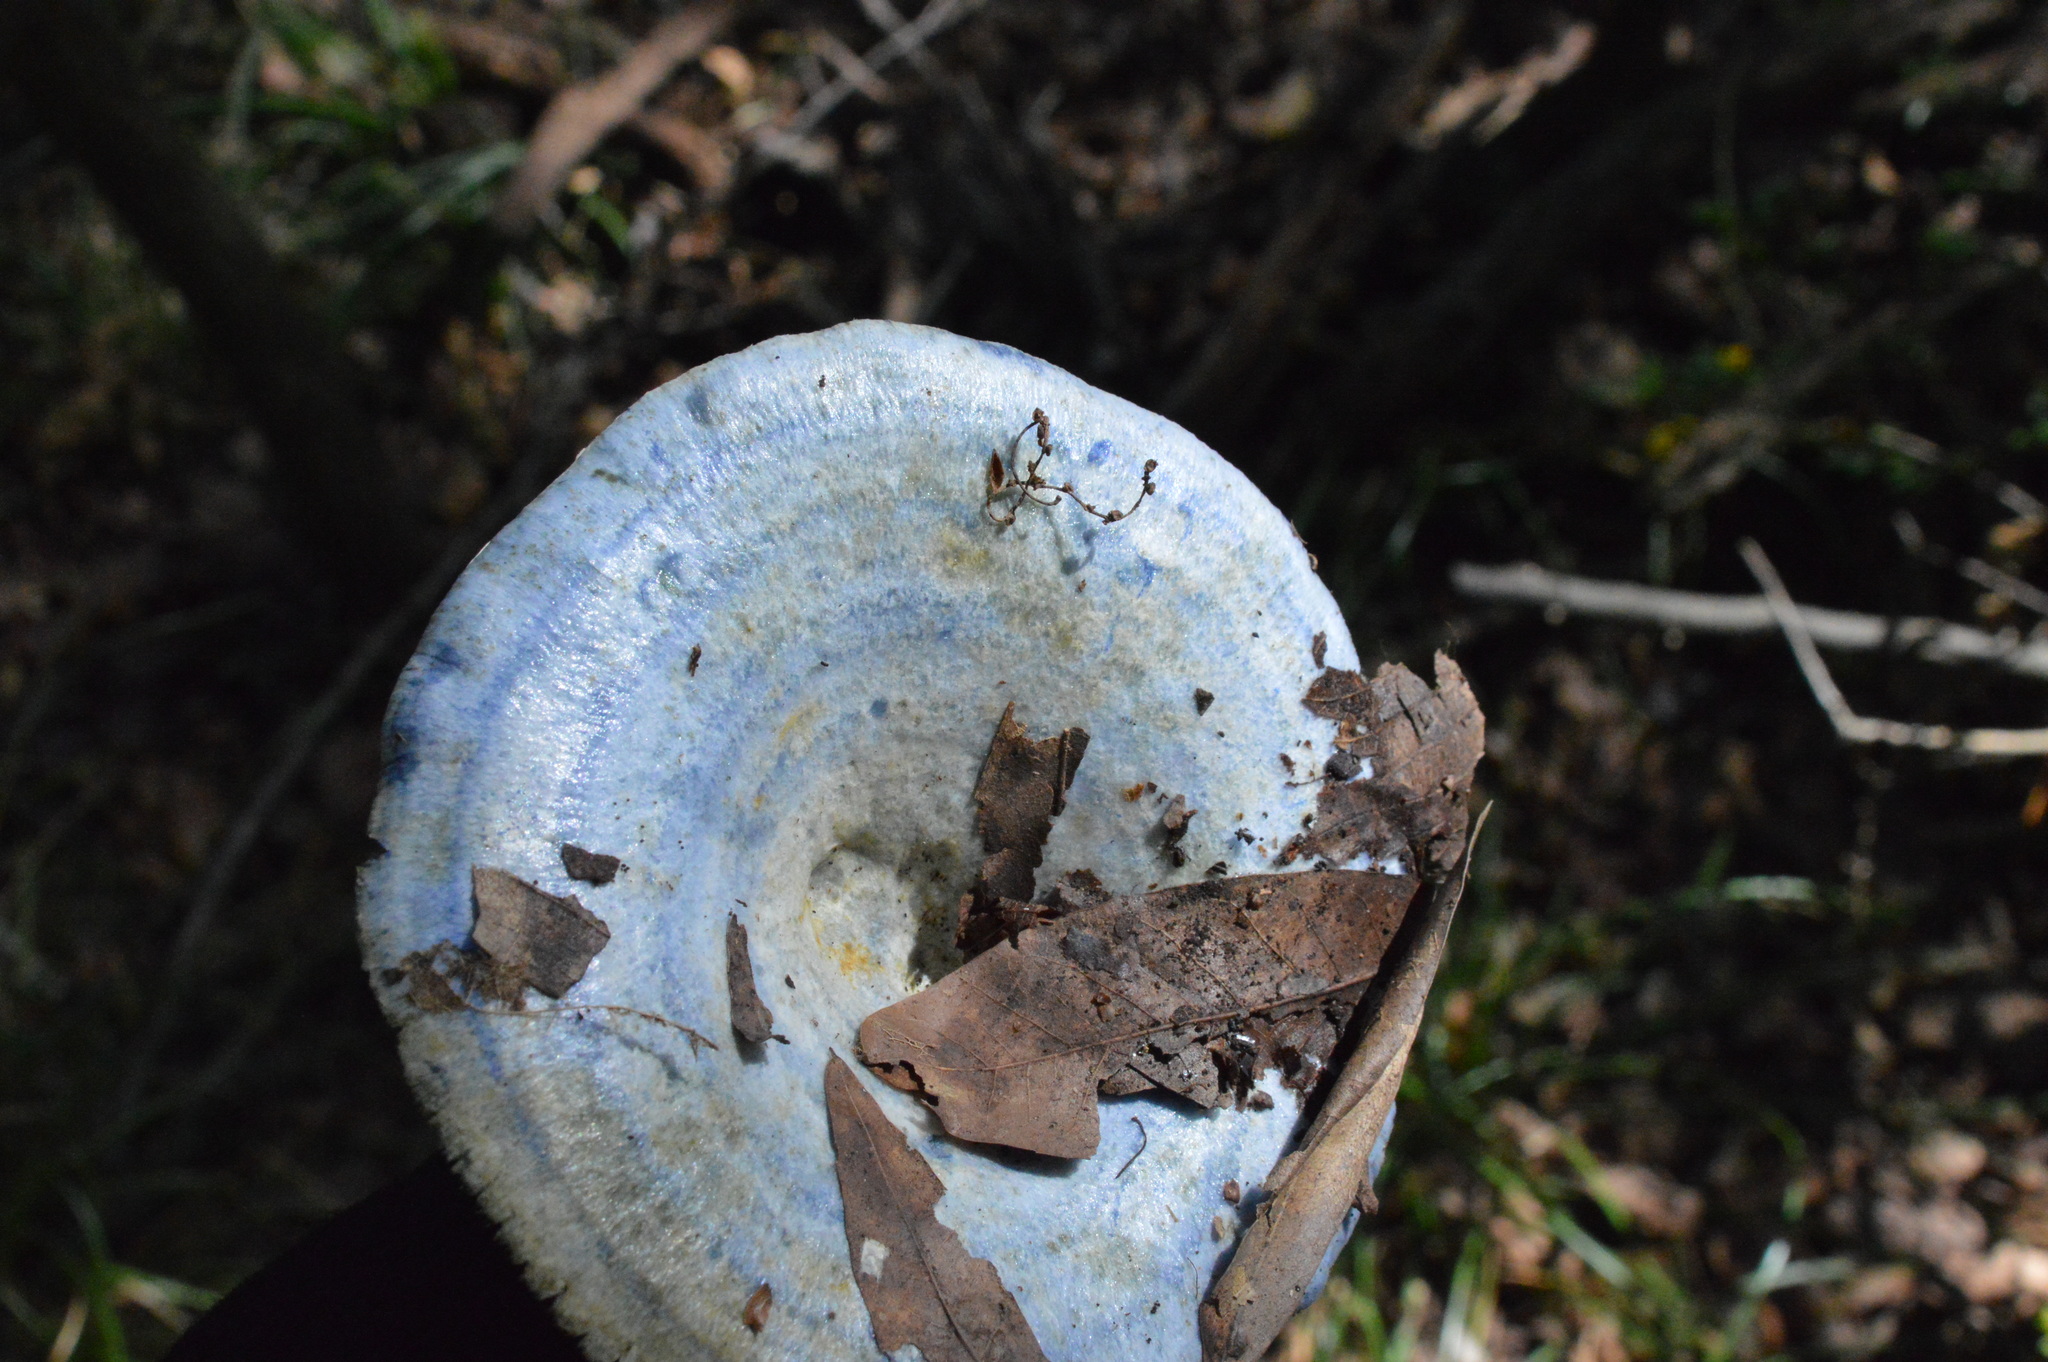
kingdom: Fungi
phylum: Basidiomycota
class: Agaricomycetes
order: Russulales
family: Russulaceae
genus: Lactarius
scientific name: Lactarius indigo
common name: Indigo milk cap
